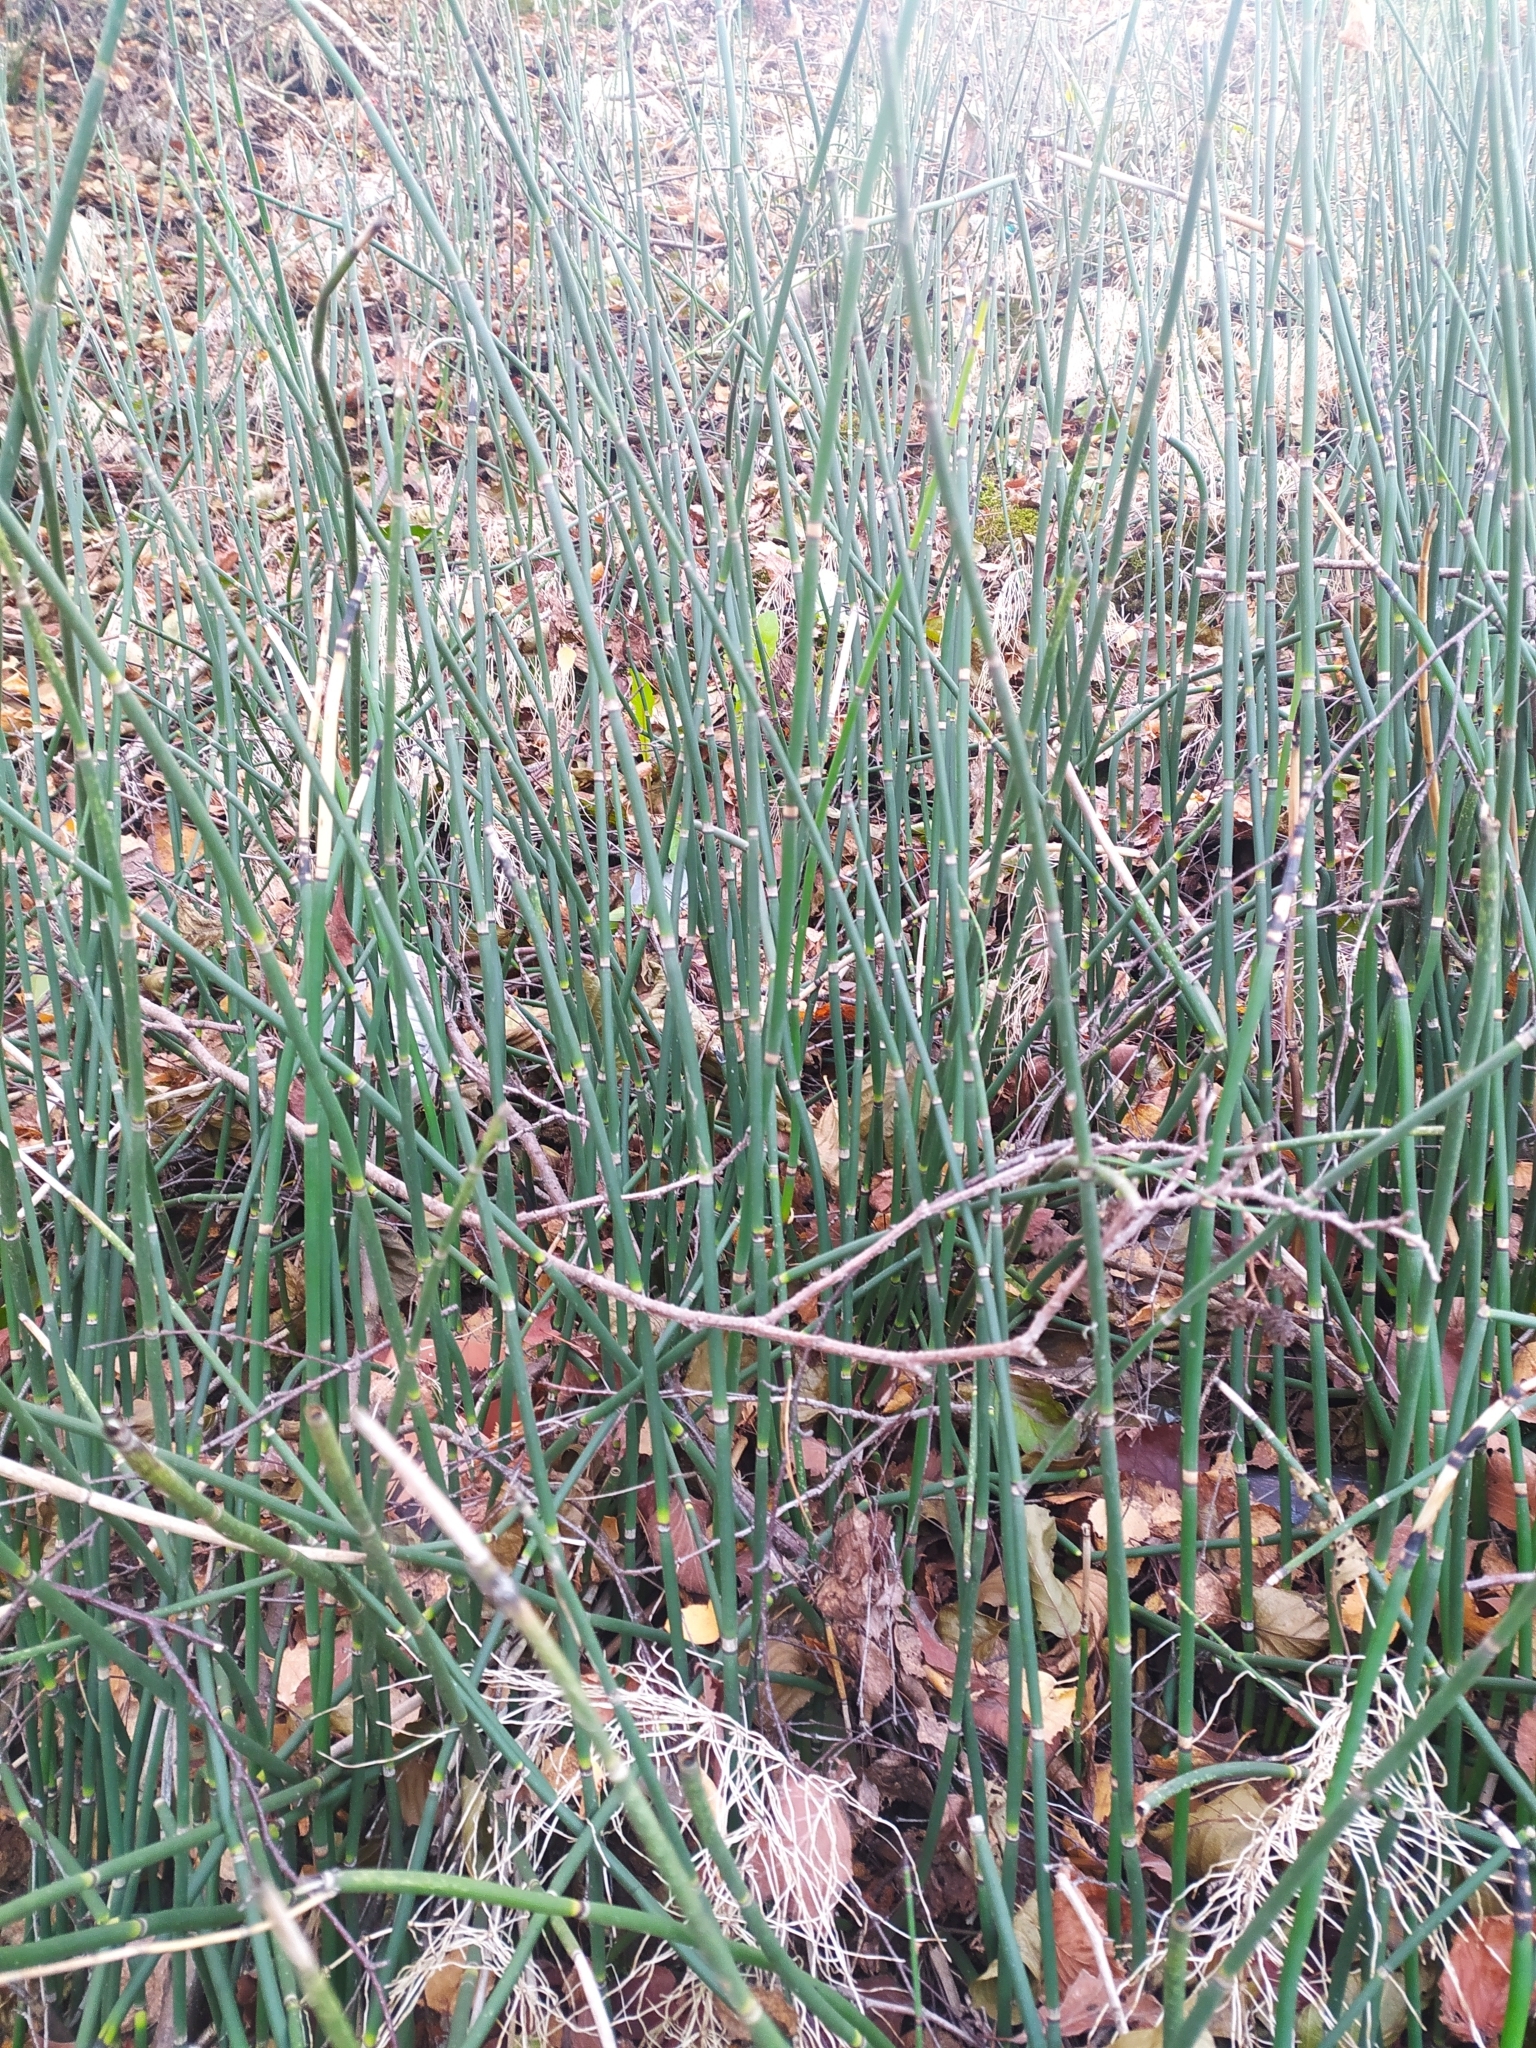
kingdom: Plantae
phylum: Tracheophyta
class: Polypodiopsida
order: Equisetales
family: Equisetaceae
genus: Equisetum
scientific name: Equisetum hyemale
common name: Rough horsetail
